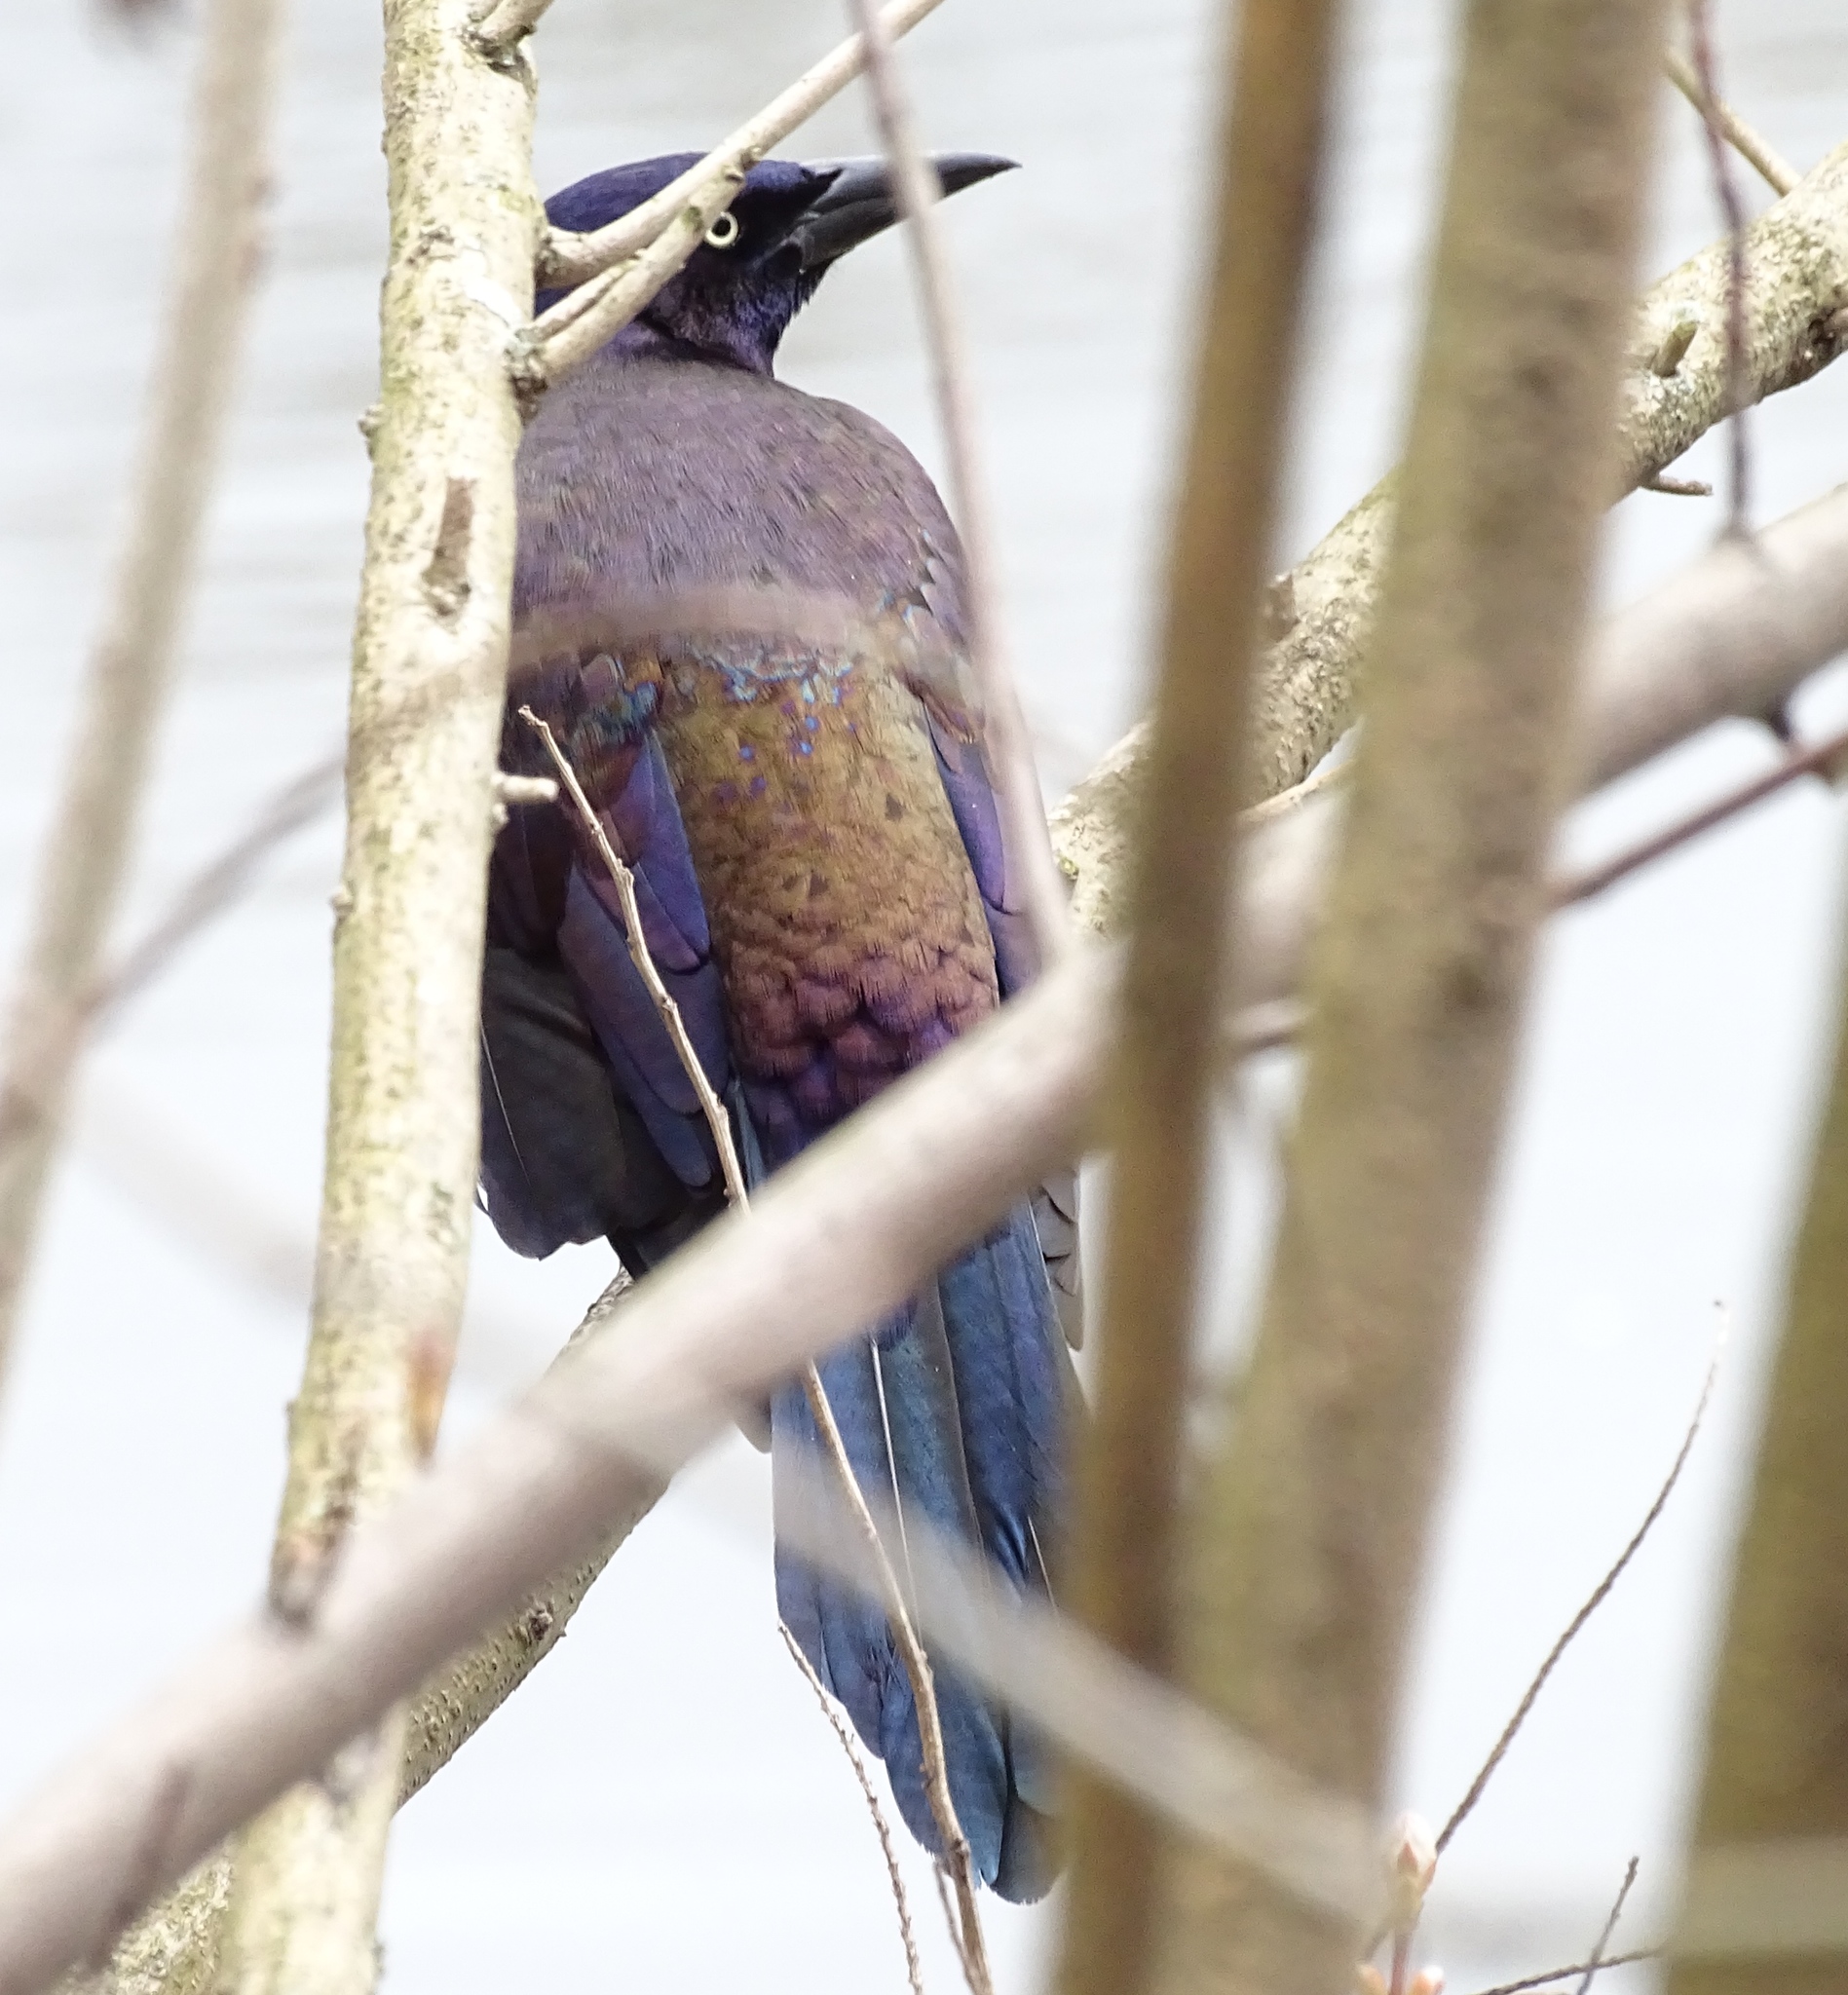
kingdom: Animalia
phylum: Chordata
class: Aves
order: Passeriformes
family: Icteridae
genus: Quiscalus
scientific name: Quiscalus quiscula
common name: Common grackle
